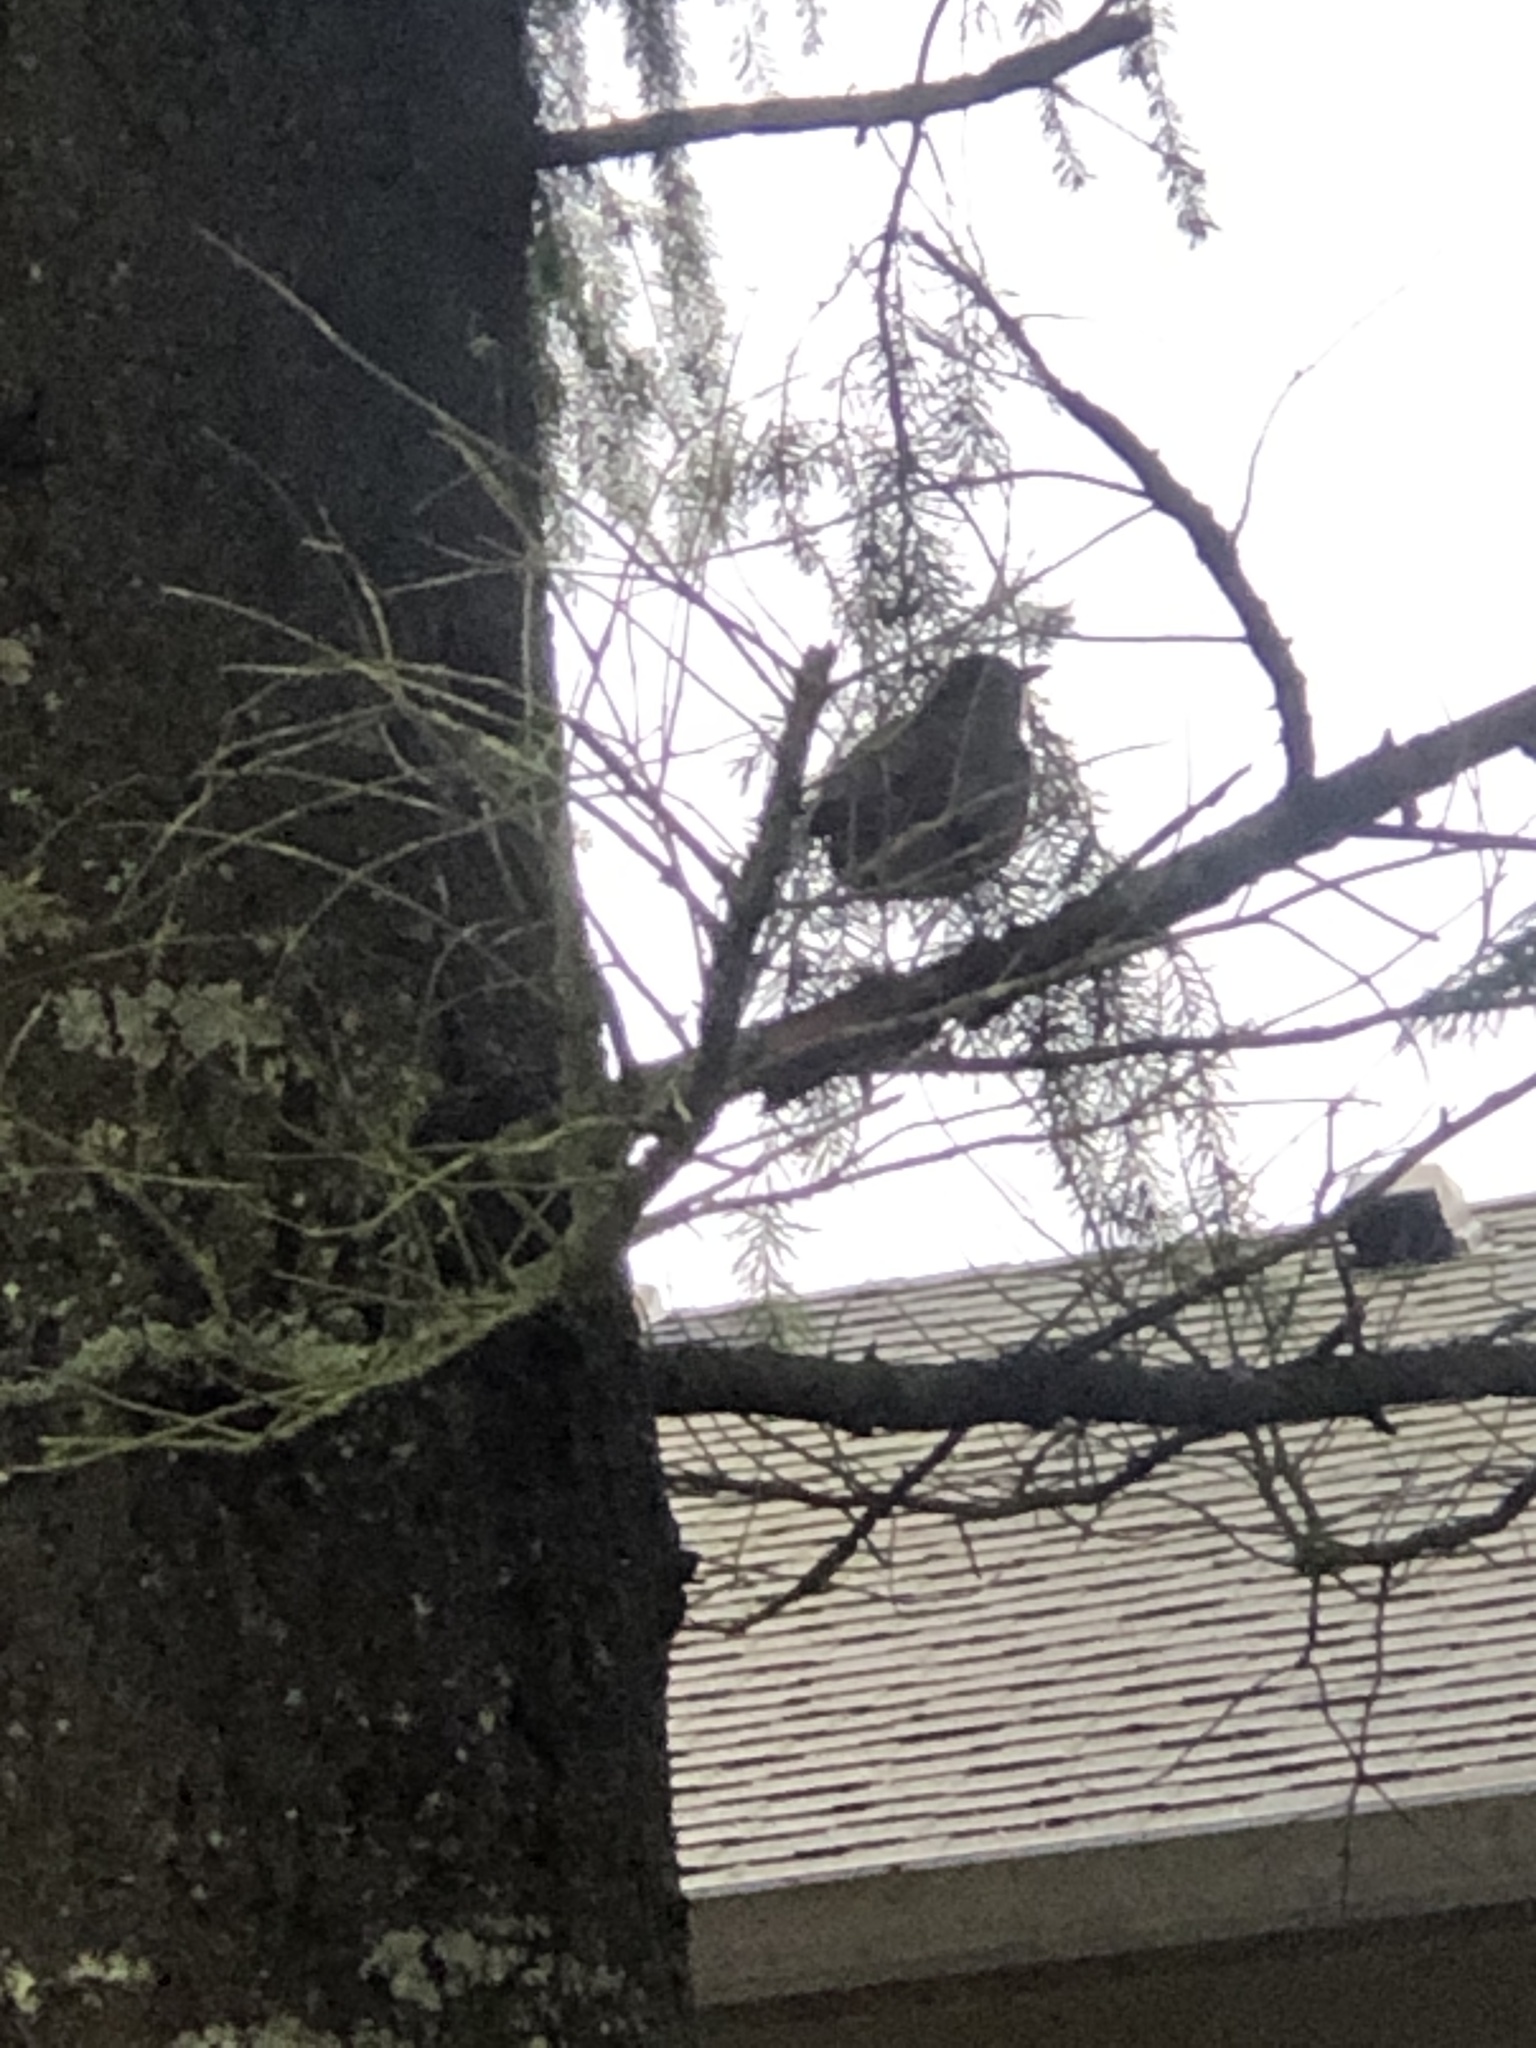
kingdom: Animalia
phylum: Chordata
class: Aves
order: Passeriformes
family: Turdidae
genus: Turdus
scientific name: Turdus migratorius
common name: American robin
